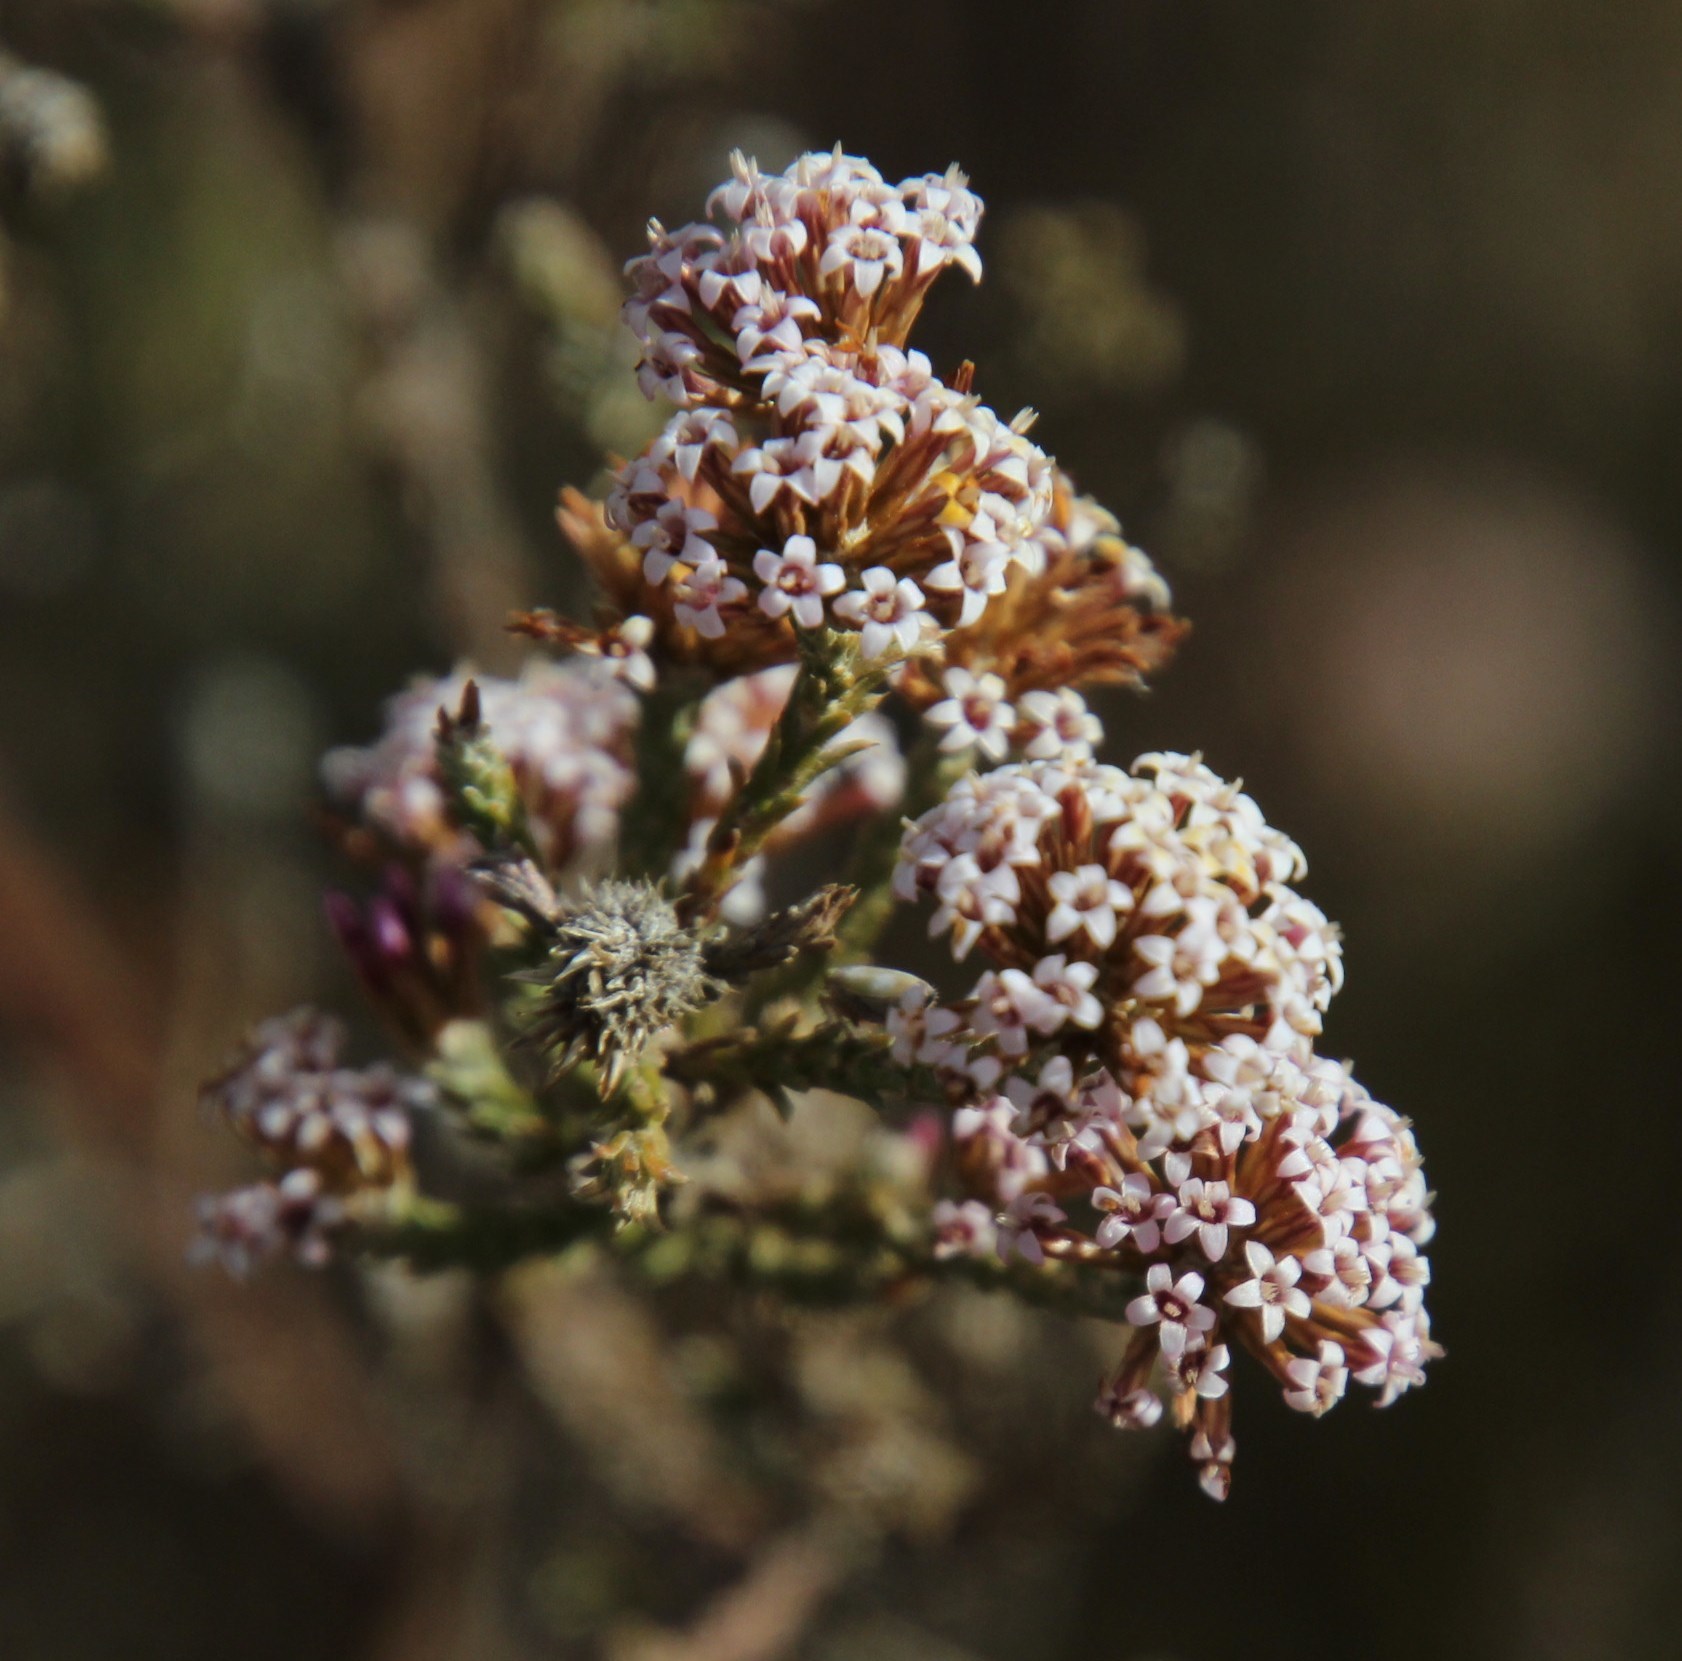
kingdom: Plantae
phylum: Tracheophyta
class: Magnoliopsida
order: Asterales
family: Asteraceae
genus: Stoebe
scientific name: Stoebe fusca
